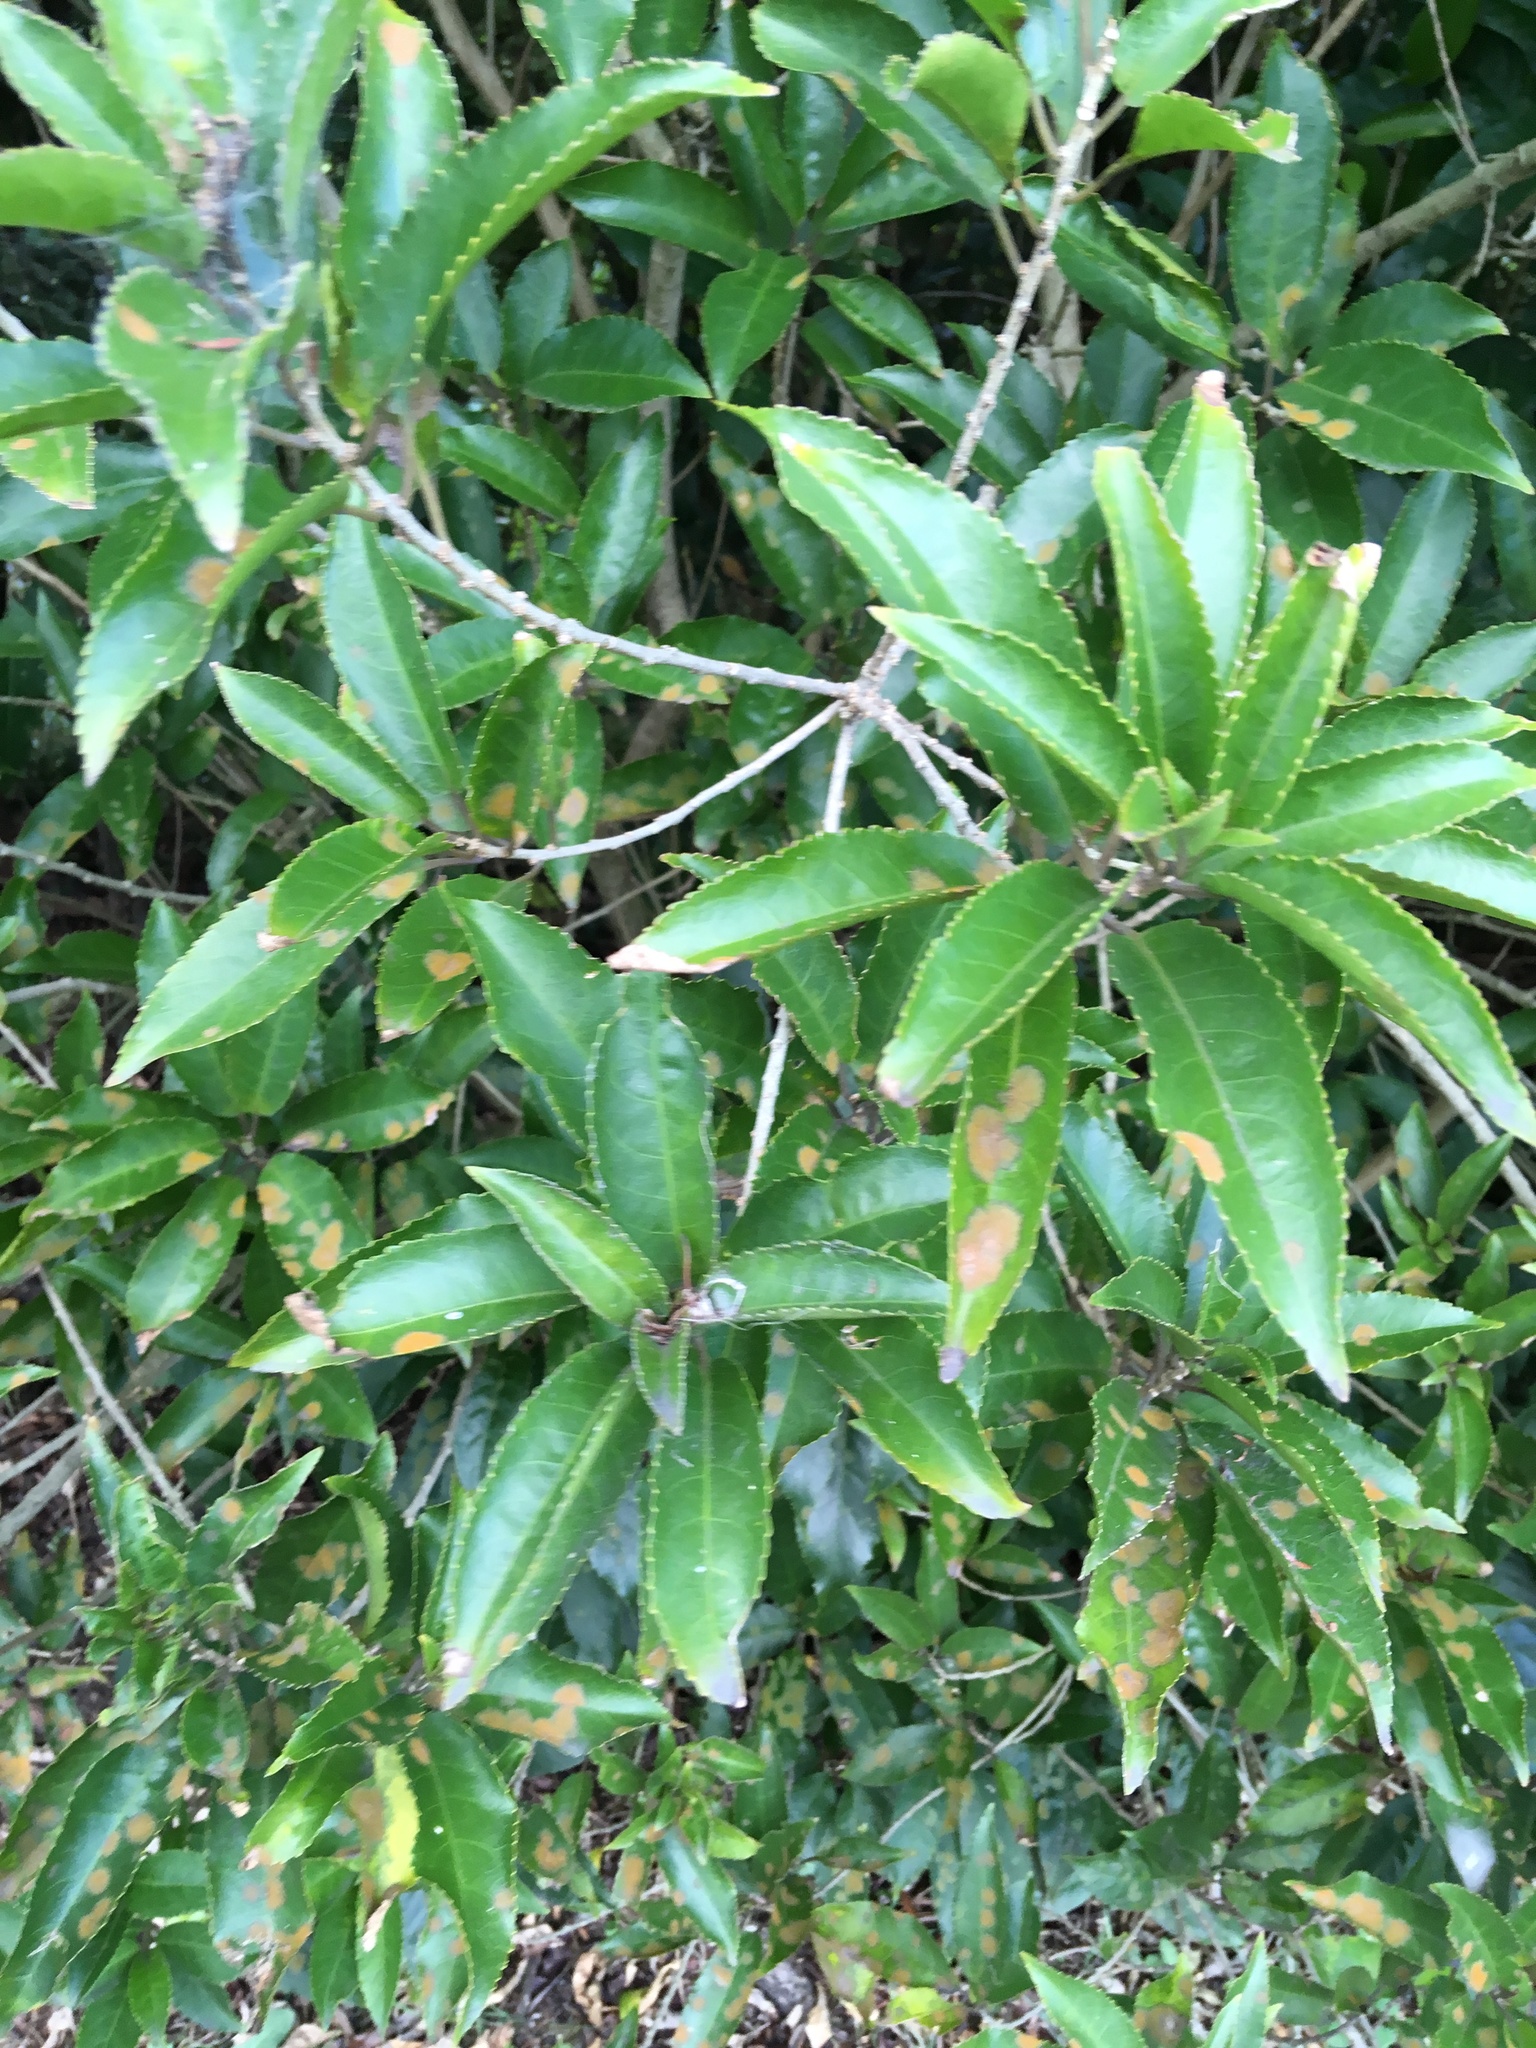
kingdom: Plantae
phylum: Tracheophyta
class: Magnoliopsida
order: Malpighiales
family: Violaceae
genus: Melicytus
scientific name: Melicytus ramiflorus
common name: Mahoe
